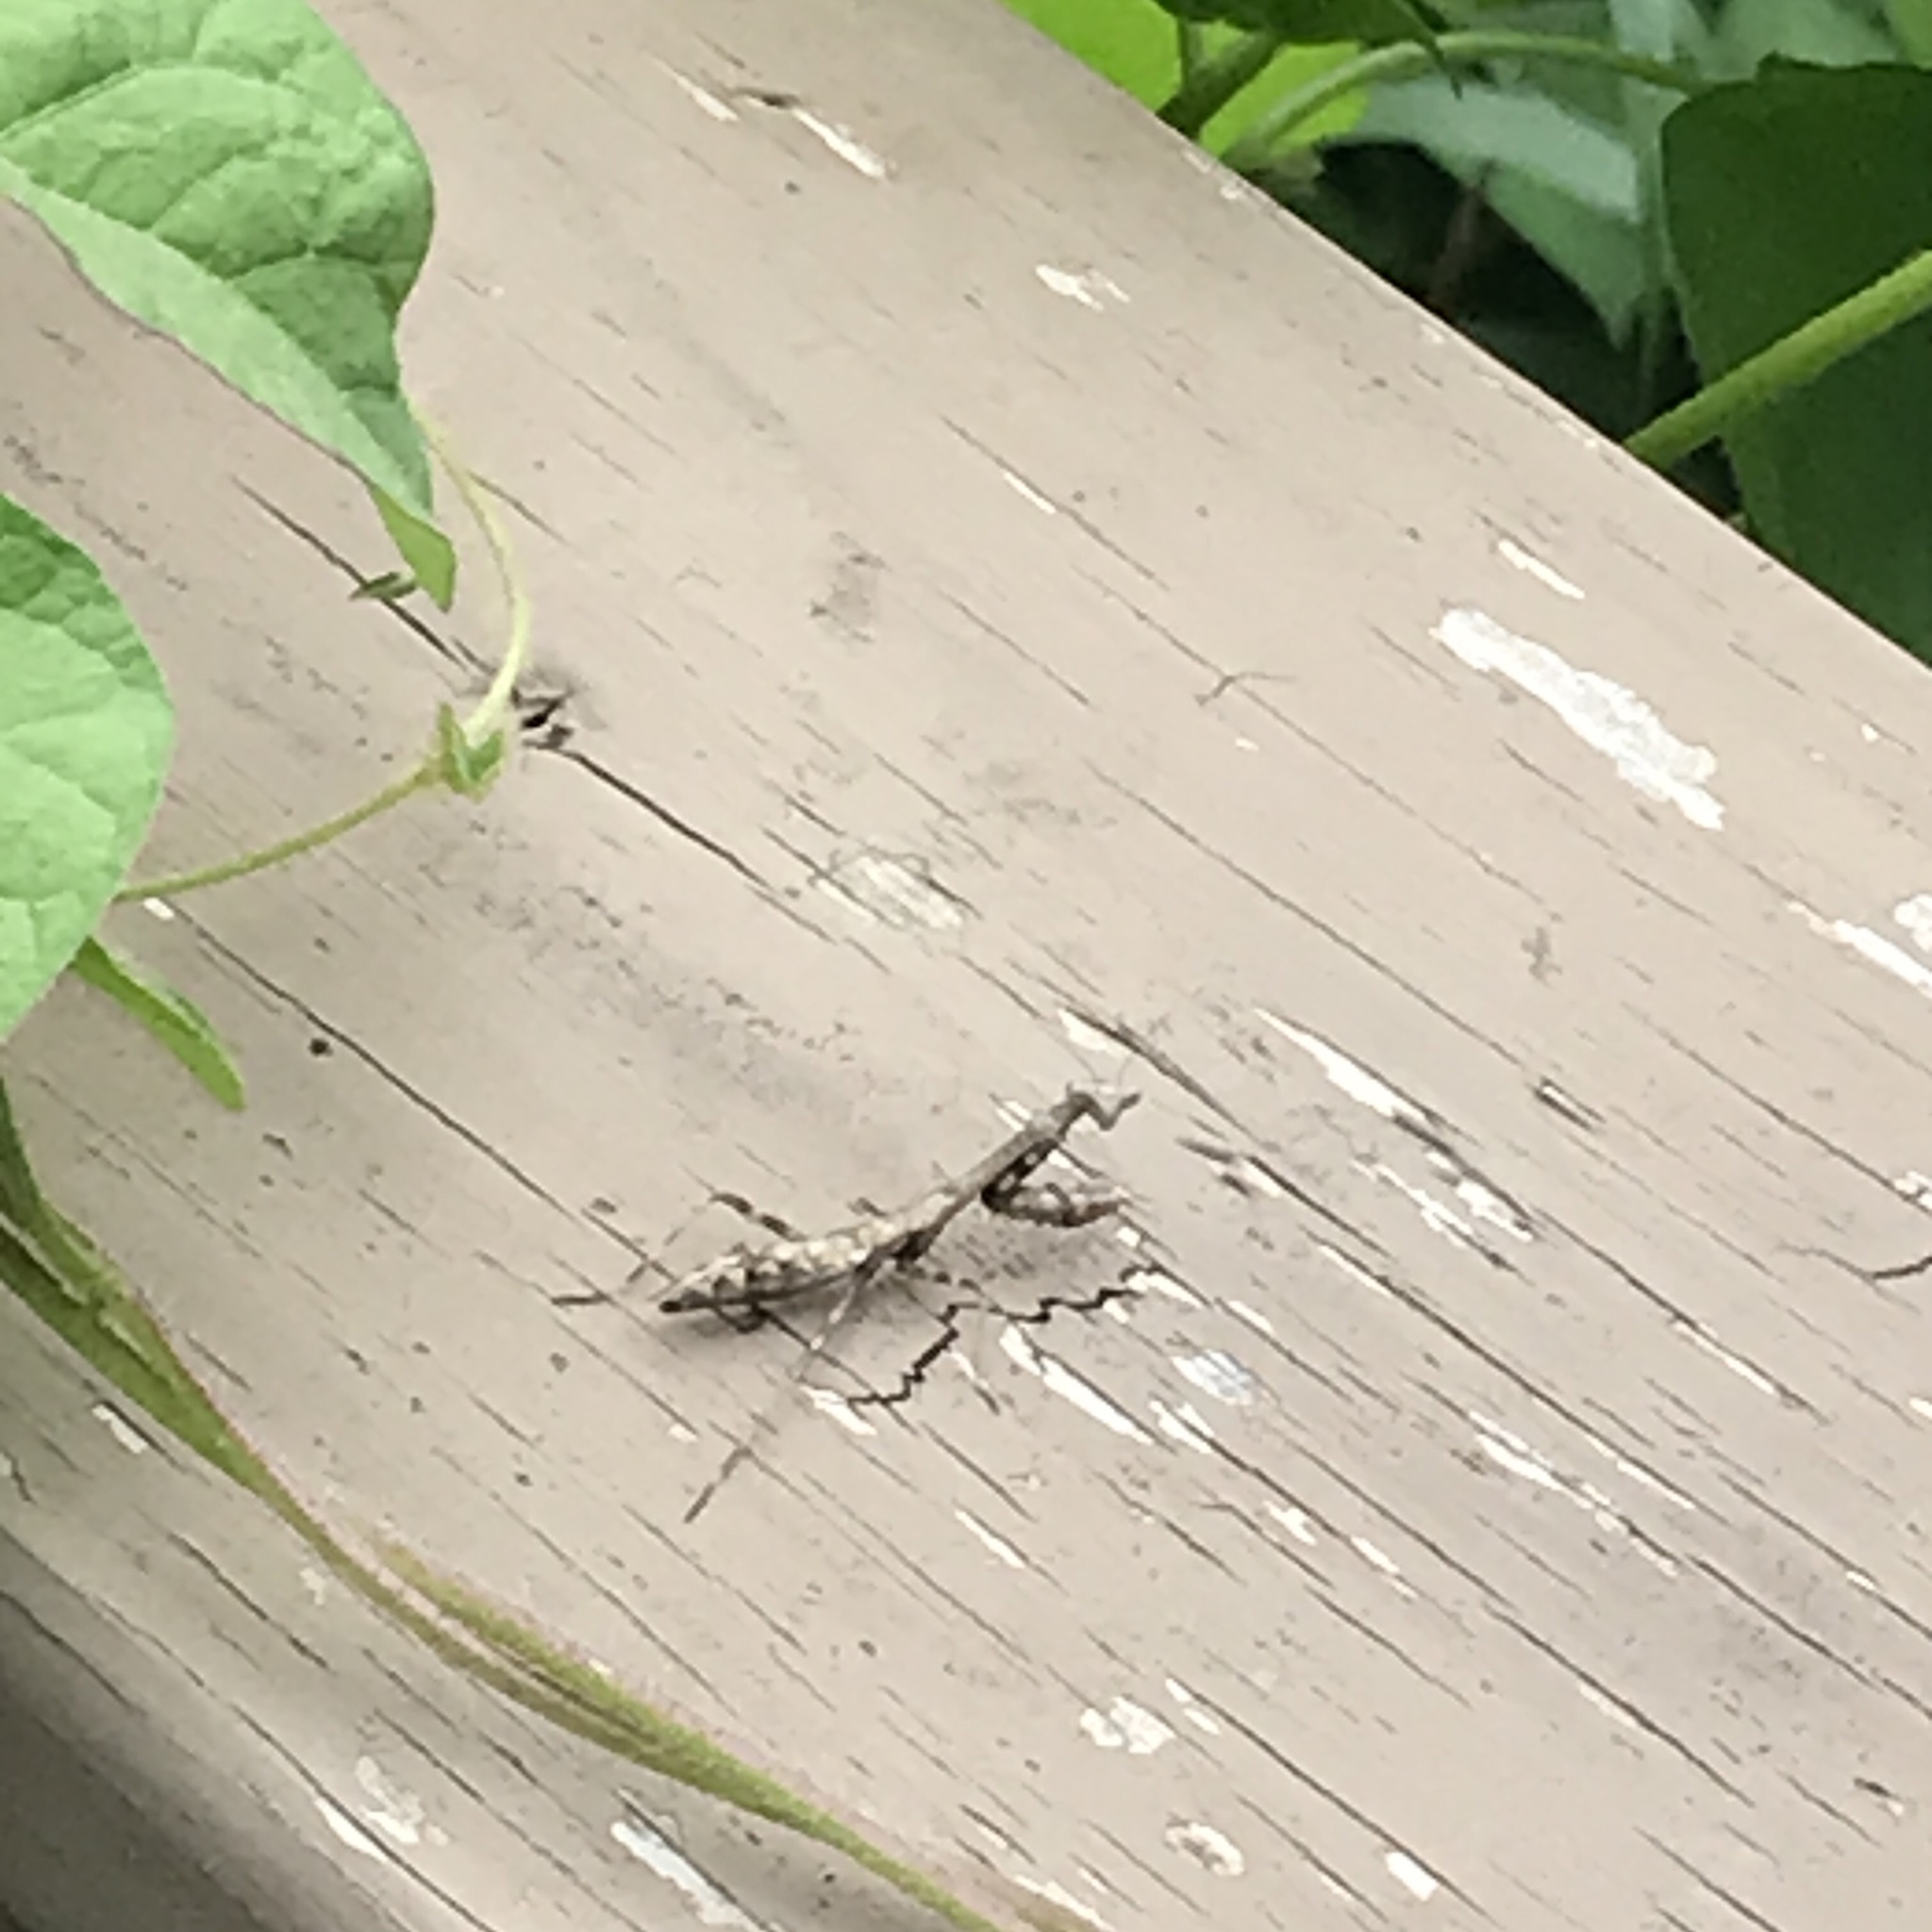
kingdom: Animalia
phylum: Arthropoda
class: Insecta
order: Mantodea
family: Mantidae
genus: Stagmomantis
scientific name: Stagmomantis carolina
